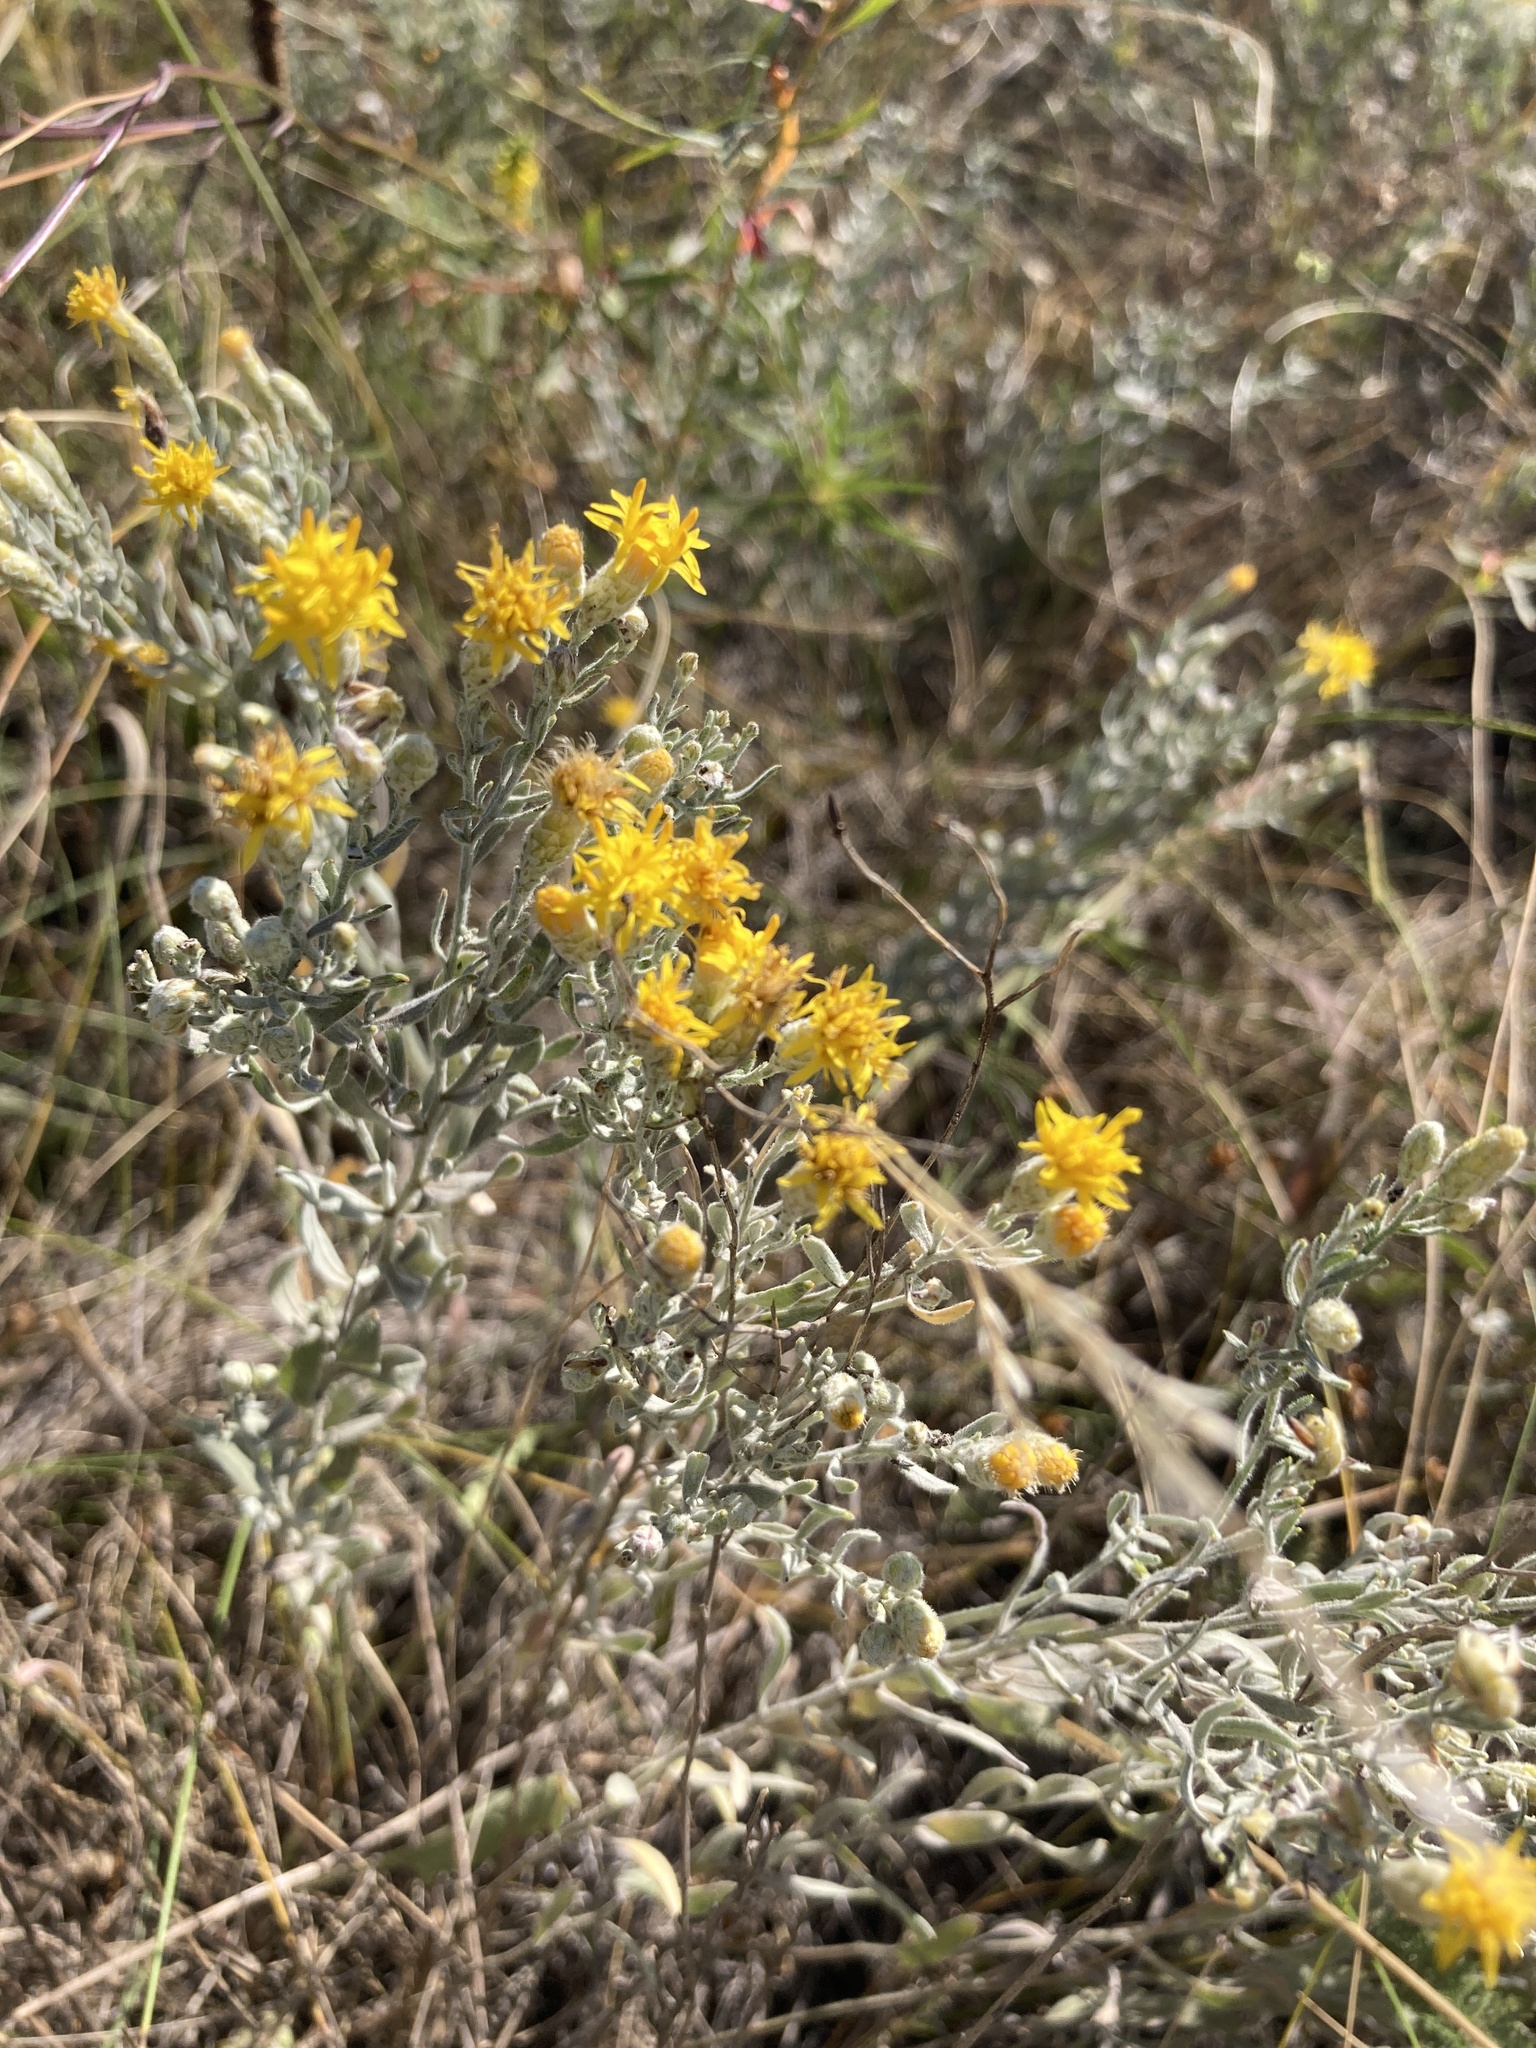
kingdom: Plantae
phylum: Tracheophyta
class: Magnoliopsida
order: Asterales
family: Asteraceae
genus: Galatella
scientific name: Galatella villosa
